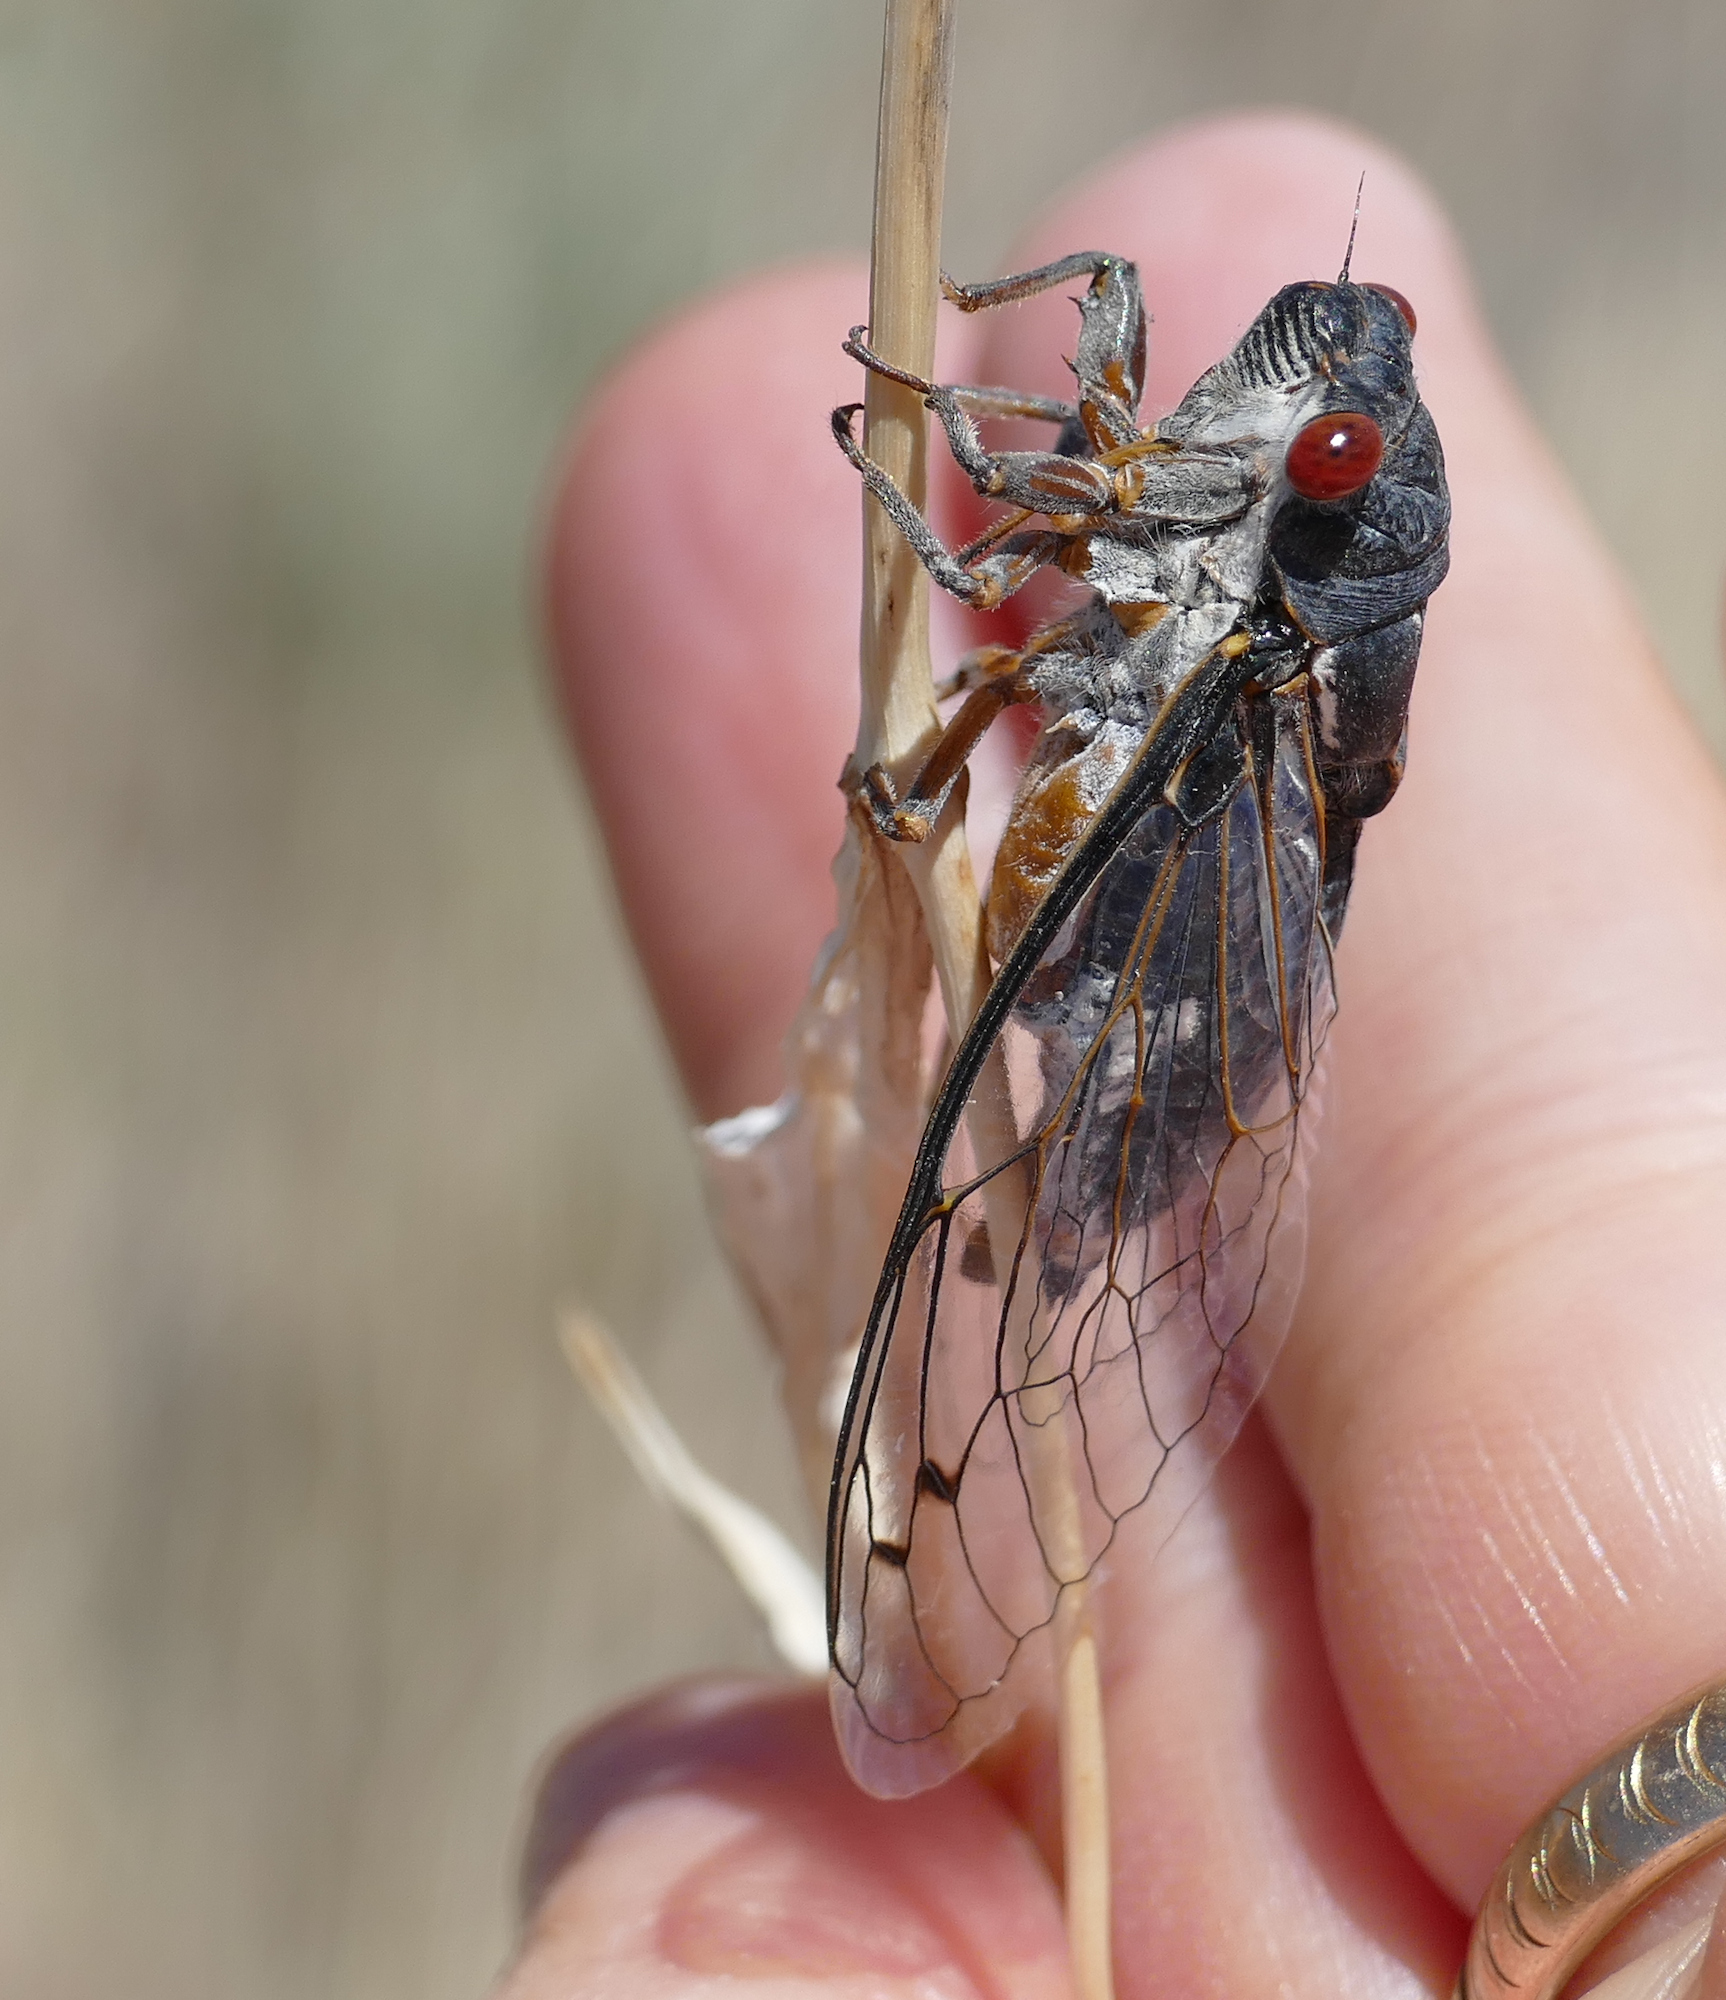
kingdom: Animalia
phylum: Arthropoda
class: Insecta
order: Hemiptera
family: Cicadidae
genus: Hadoa
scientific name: Hadoa chiricahua
